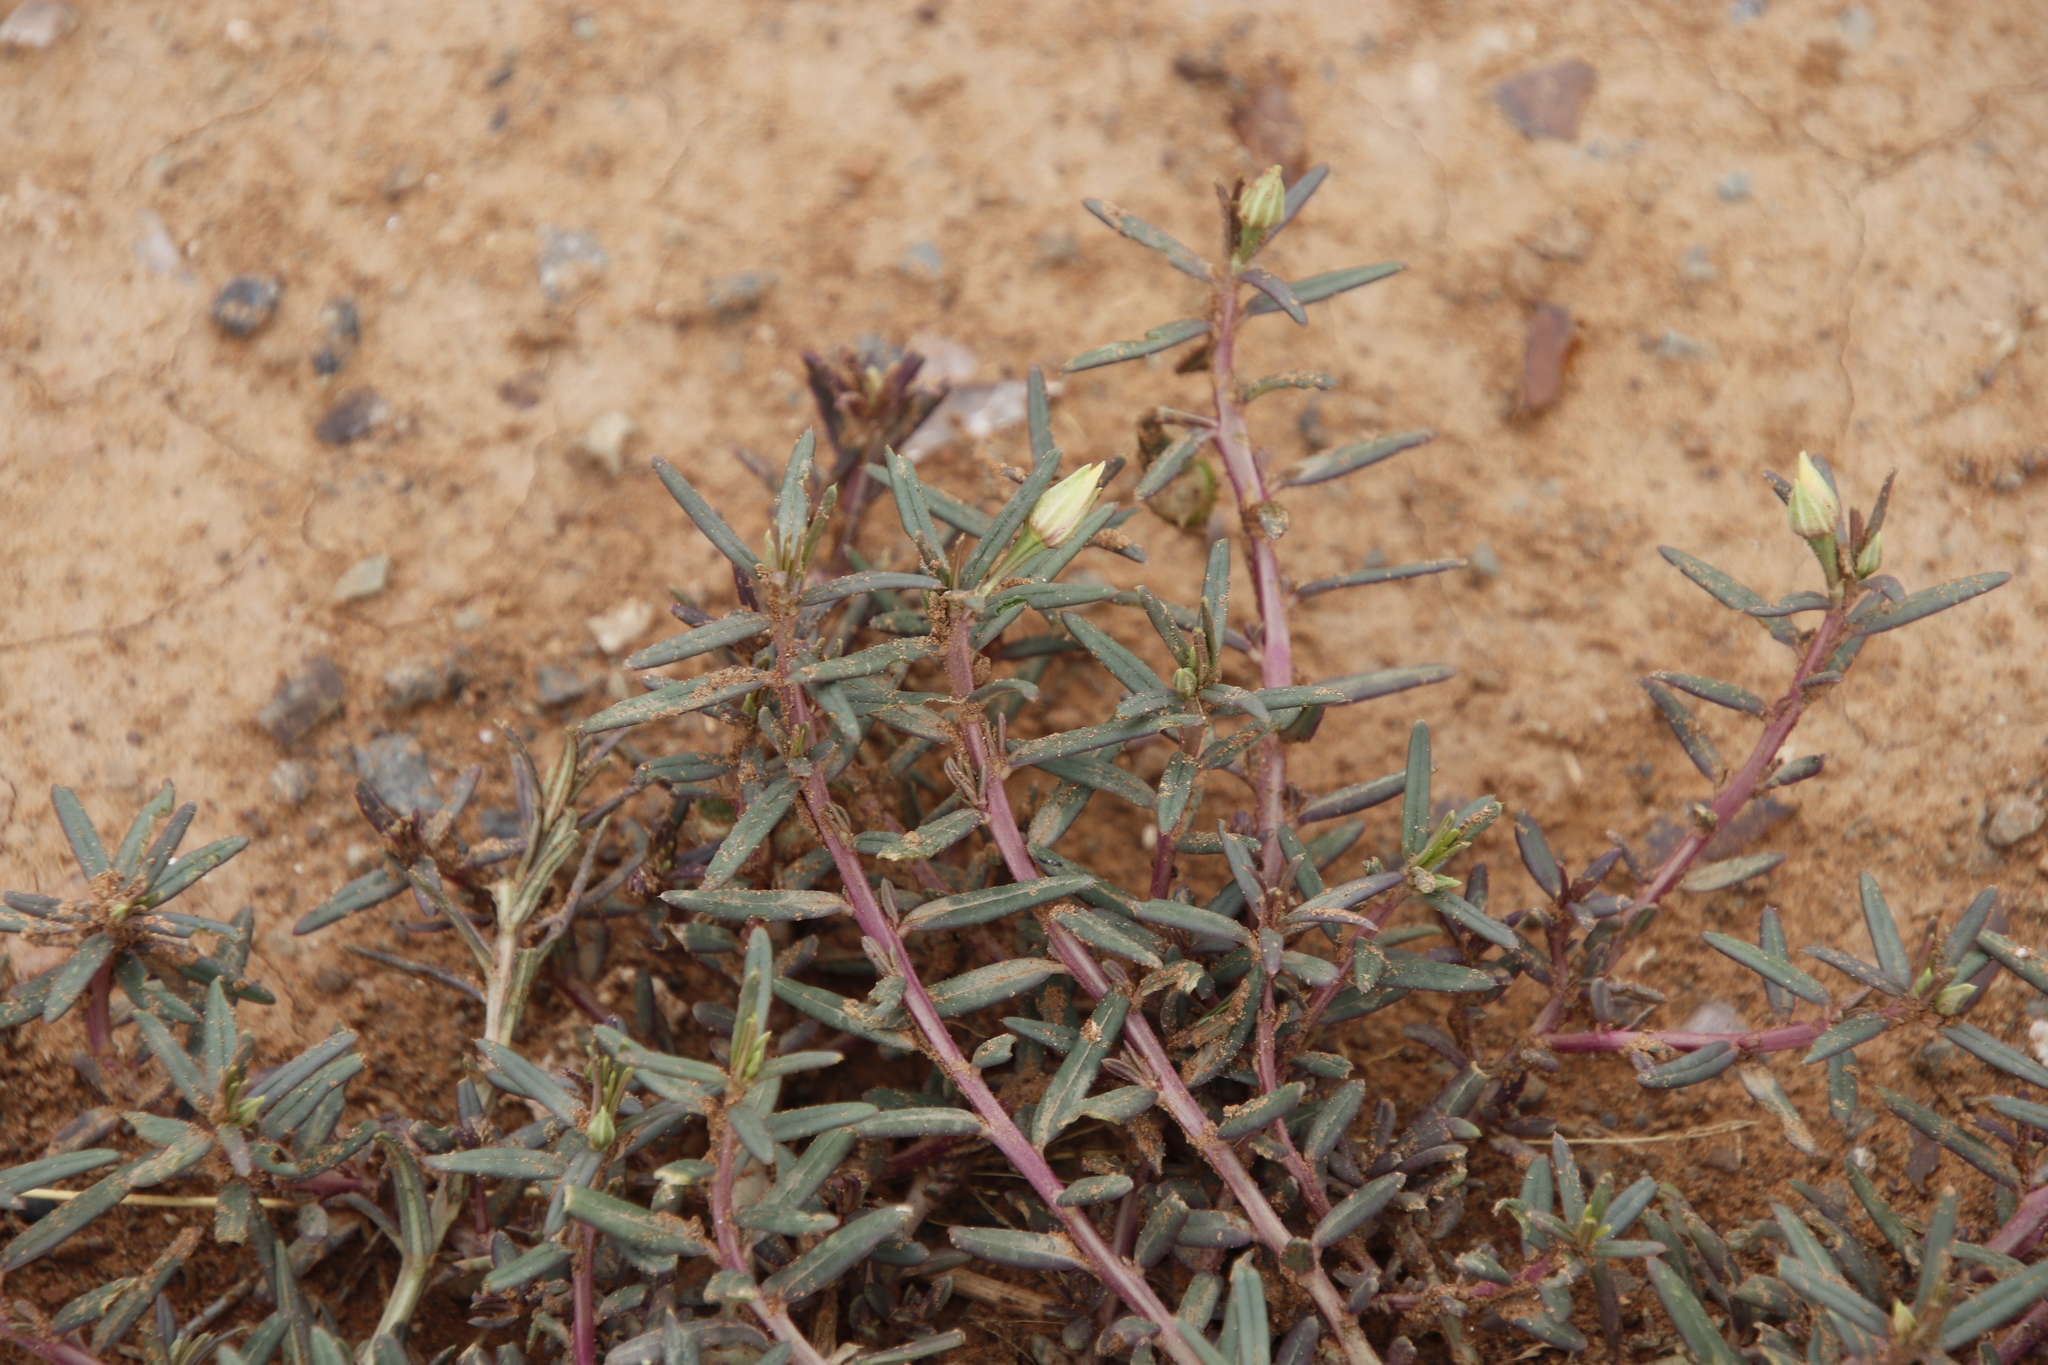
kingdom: Plantae
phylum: Tracheophyta
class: Magnoliopsida
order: Caryophyllales
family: Talinaceae
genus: Talinum
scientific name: Talinum caffrum
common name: Flameflower
